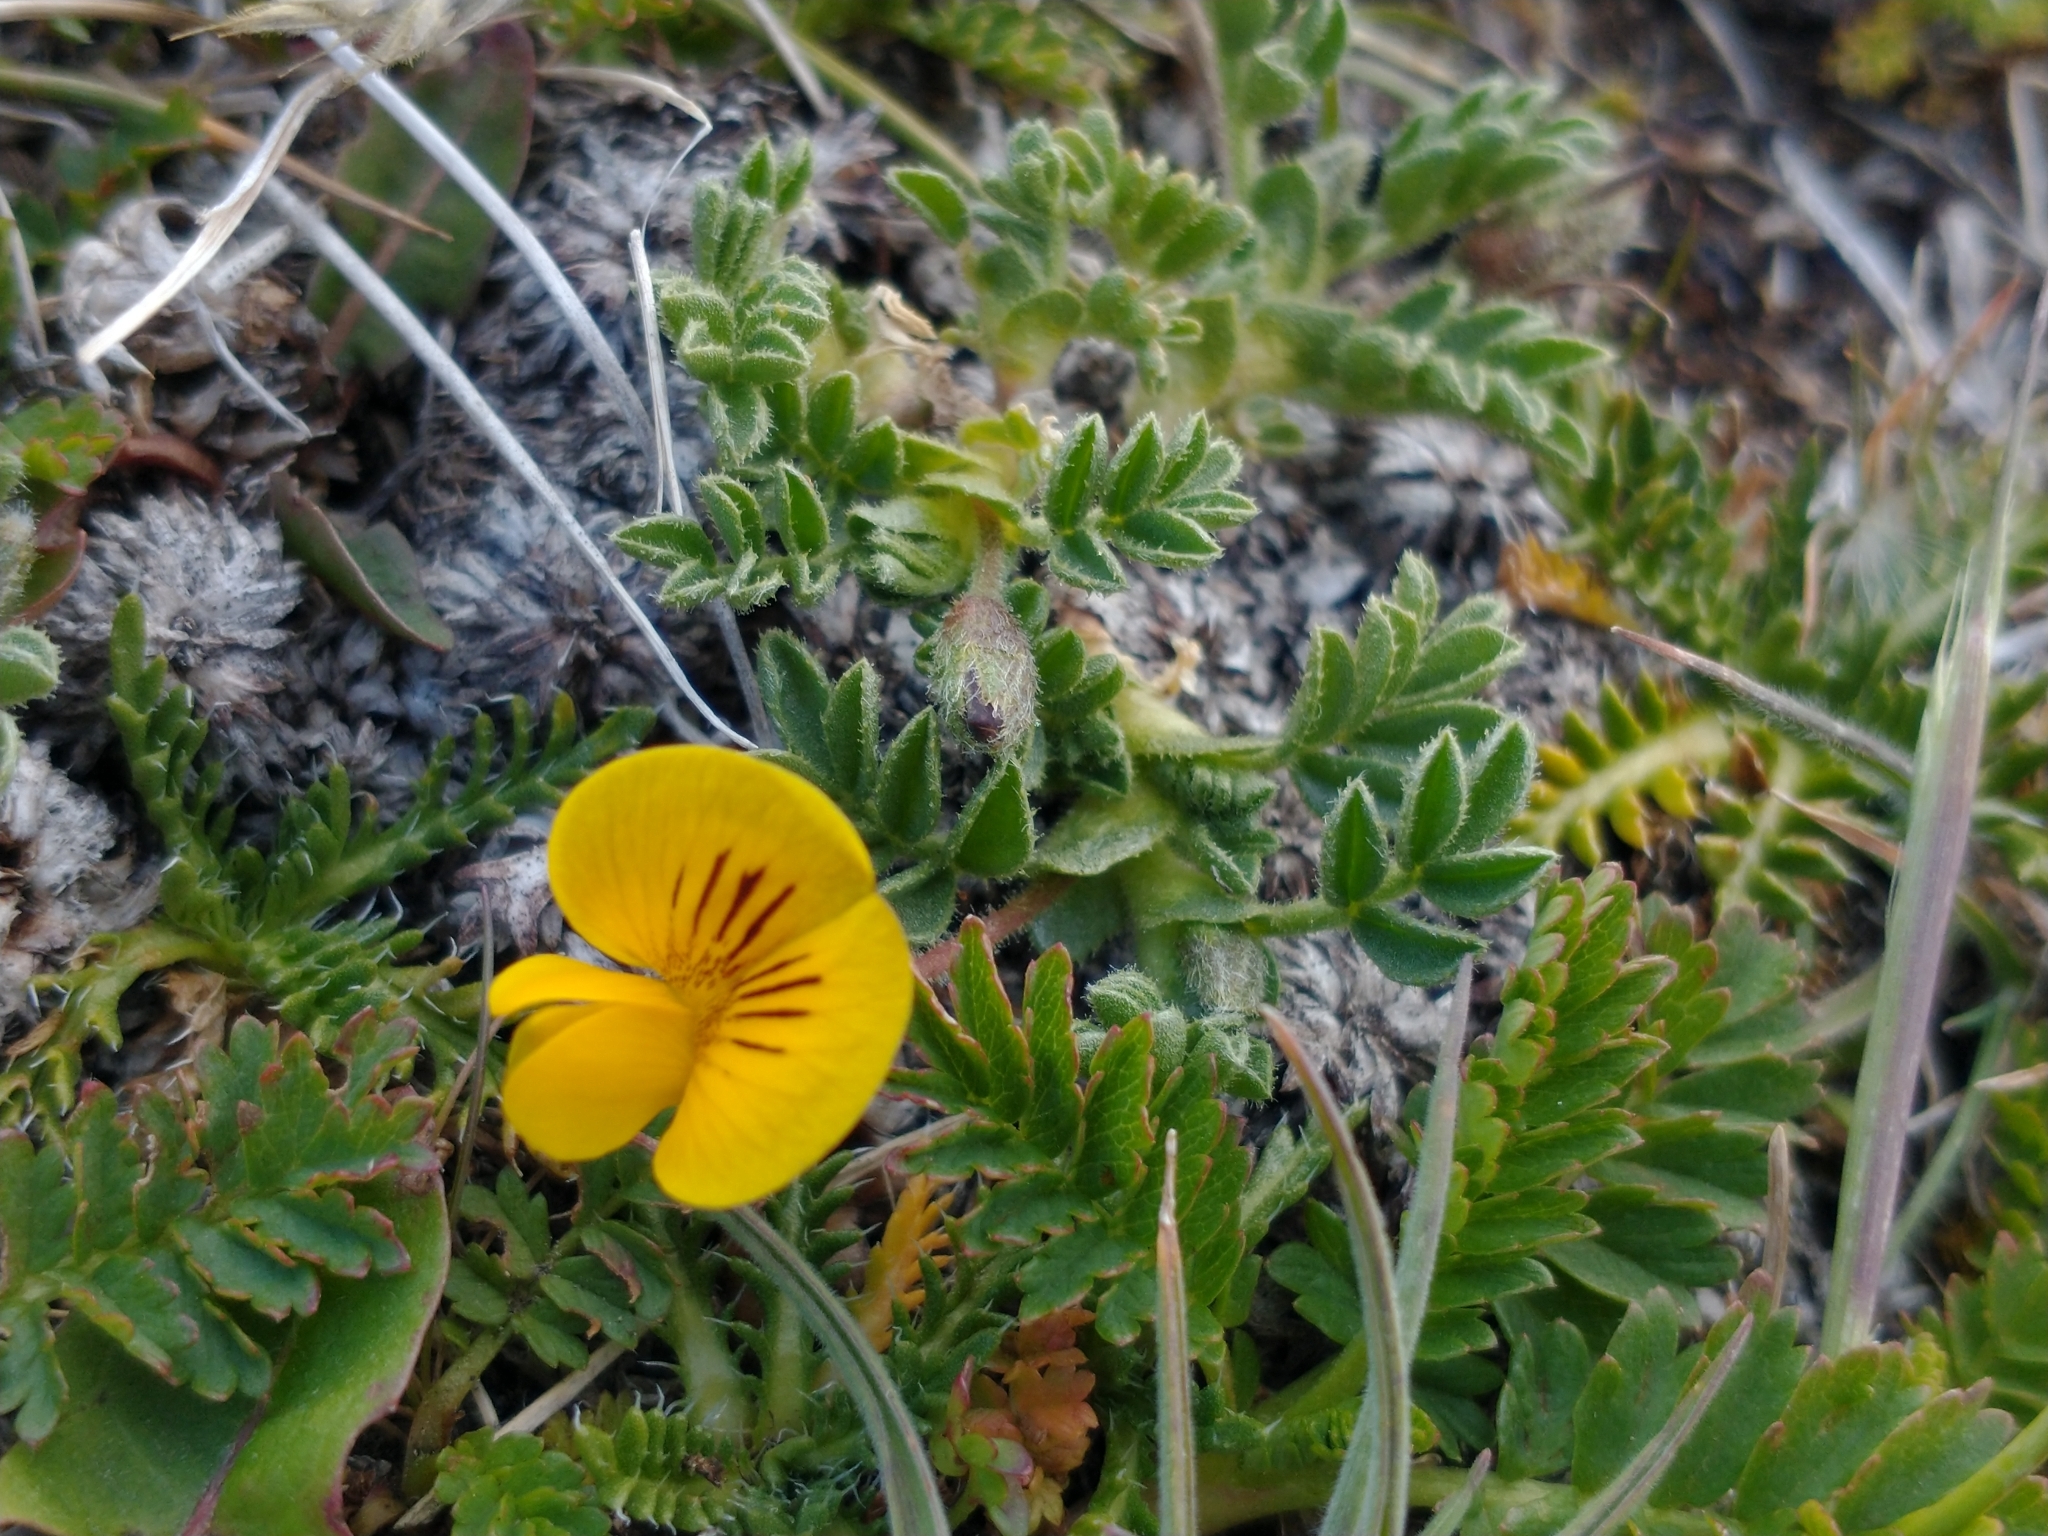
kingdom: Plantae
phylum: Tracheophyta
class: Magnoliopsida
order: Fabales
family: Fabaceae
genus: Adesmia
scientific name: Adesmia pumila
